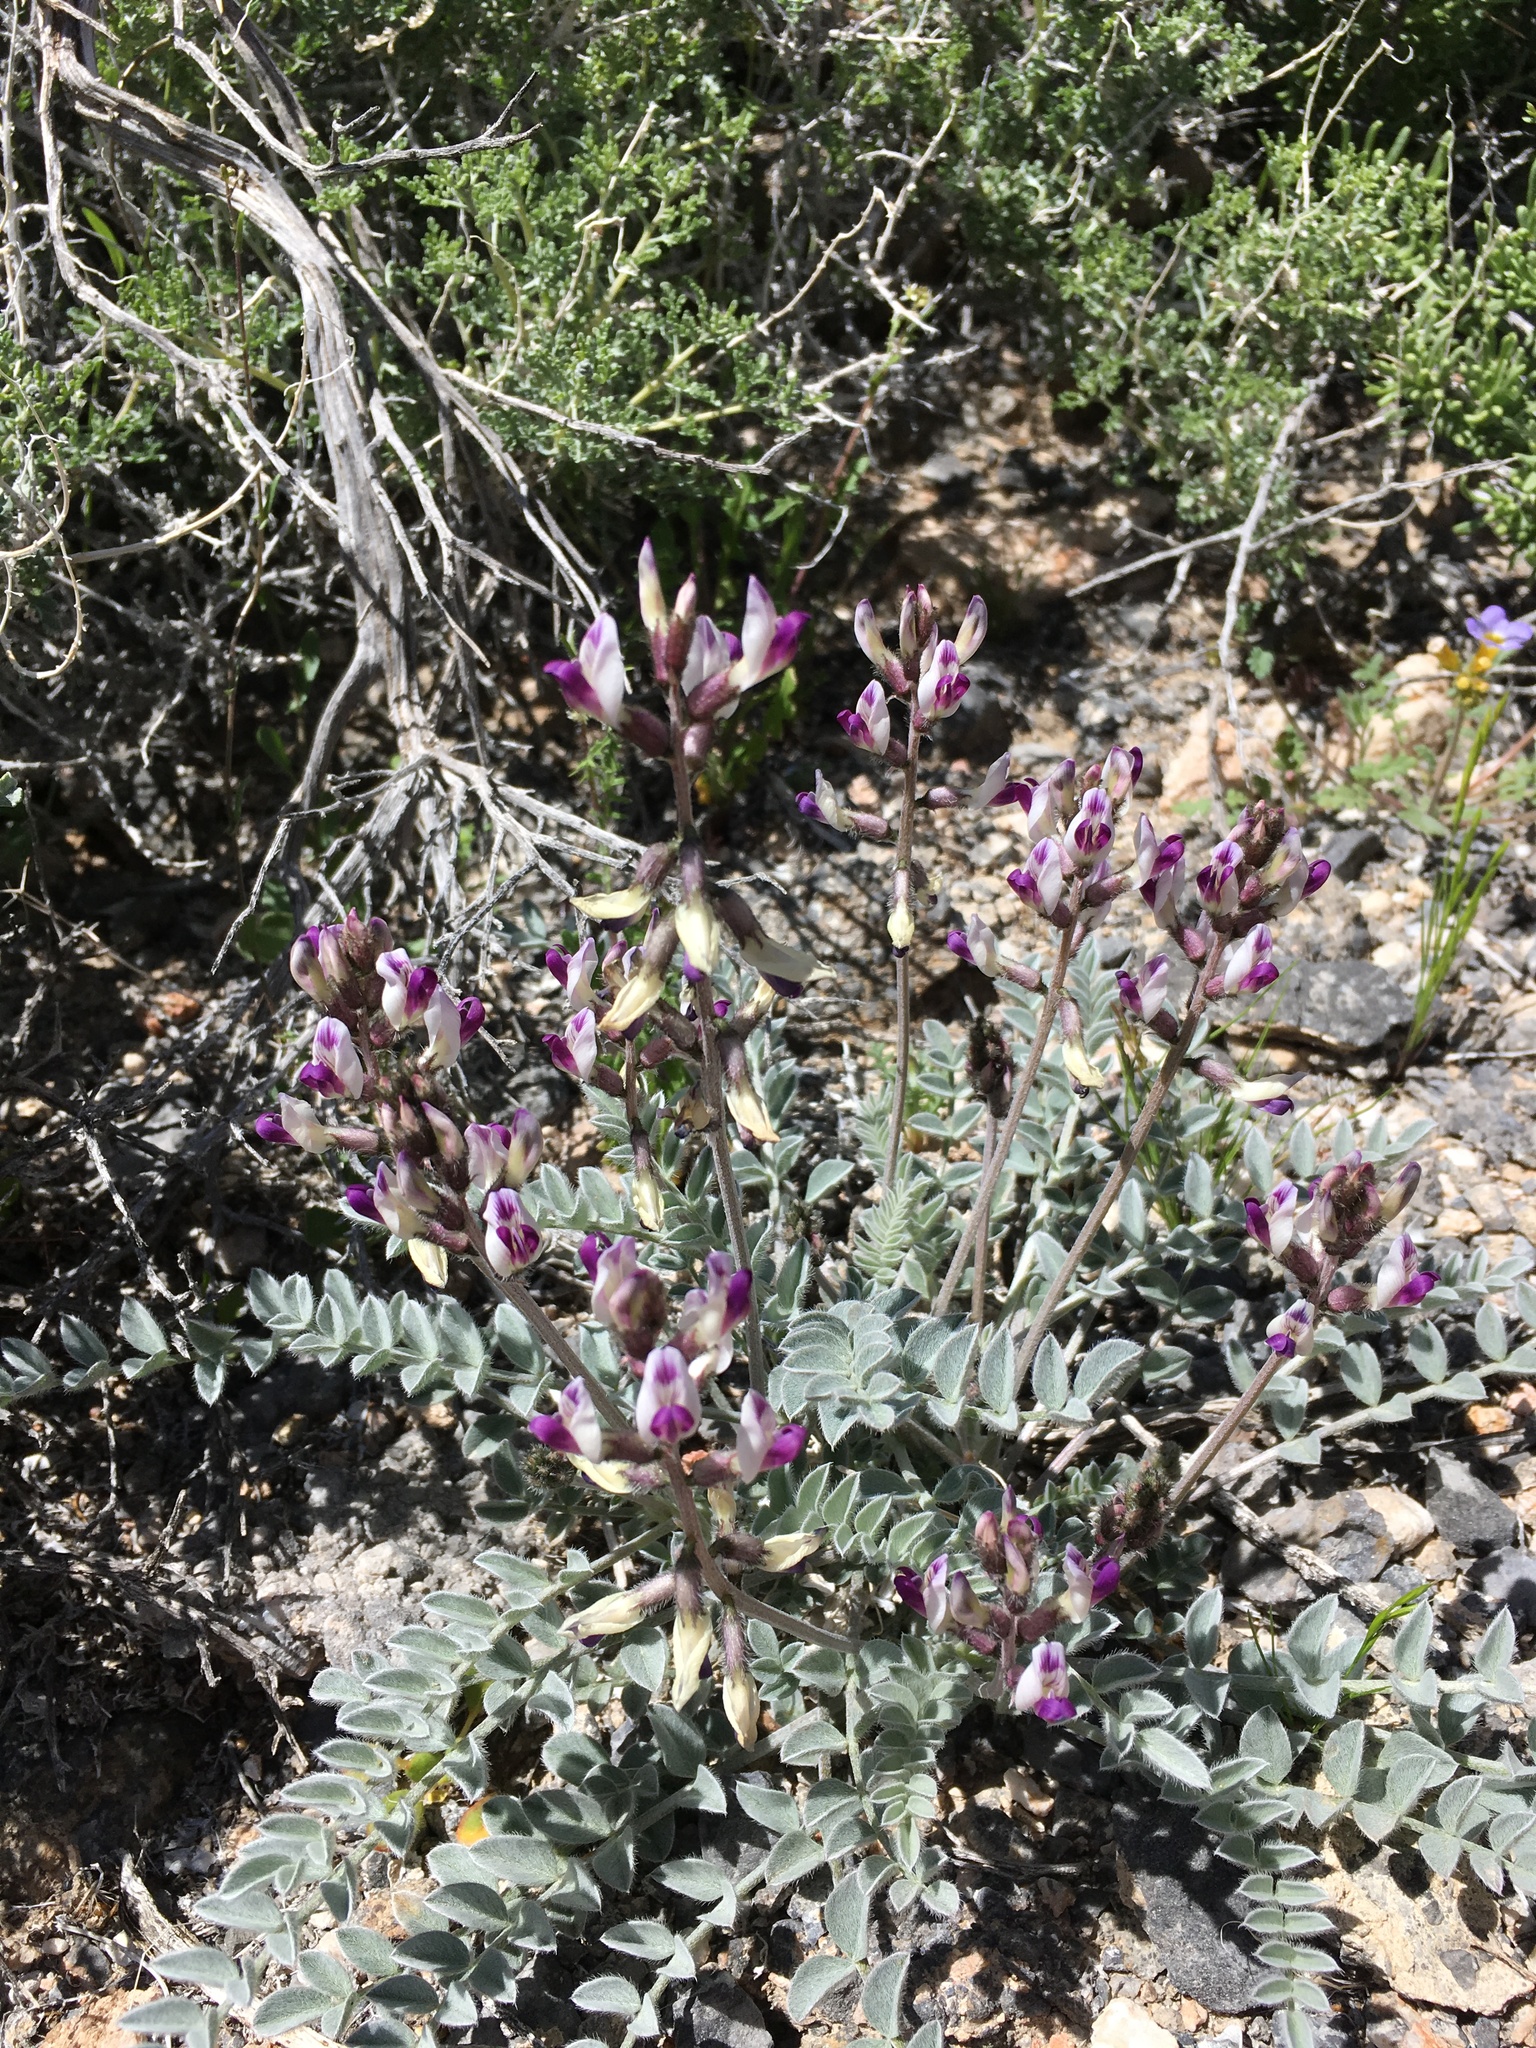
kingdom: Plantae
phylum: Tracheophyta
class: Magnoliopsida
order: Fabales
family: Fabaceae
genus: Astragalus
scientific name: Astragalus layneae
